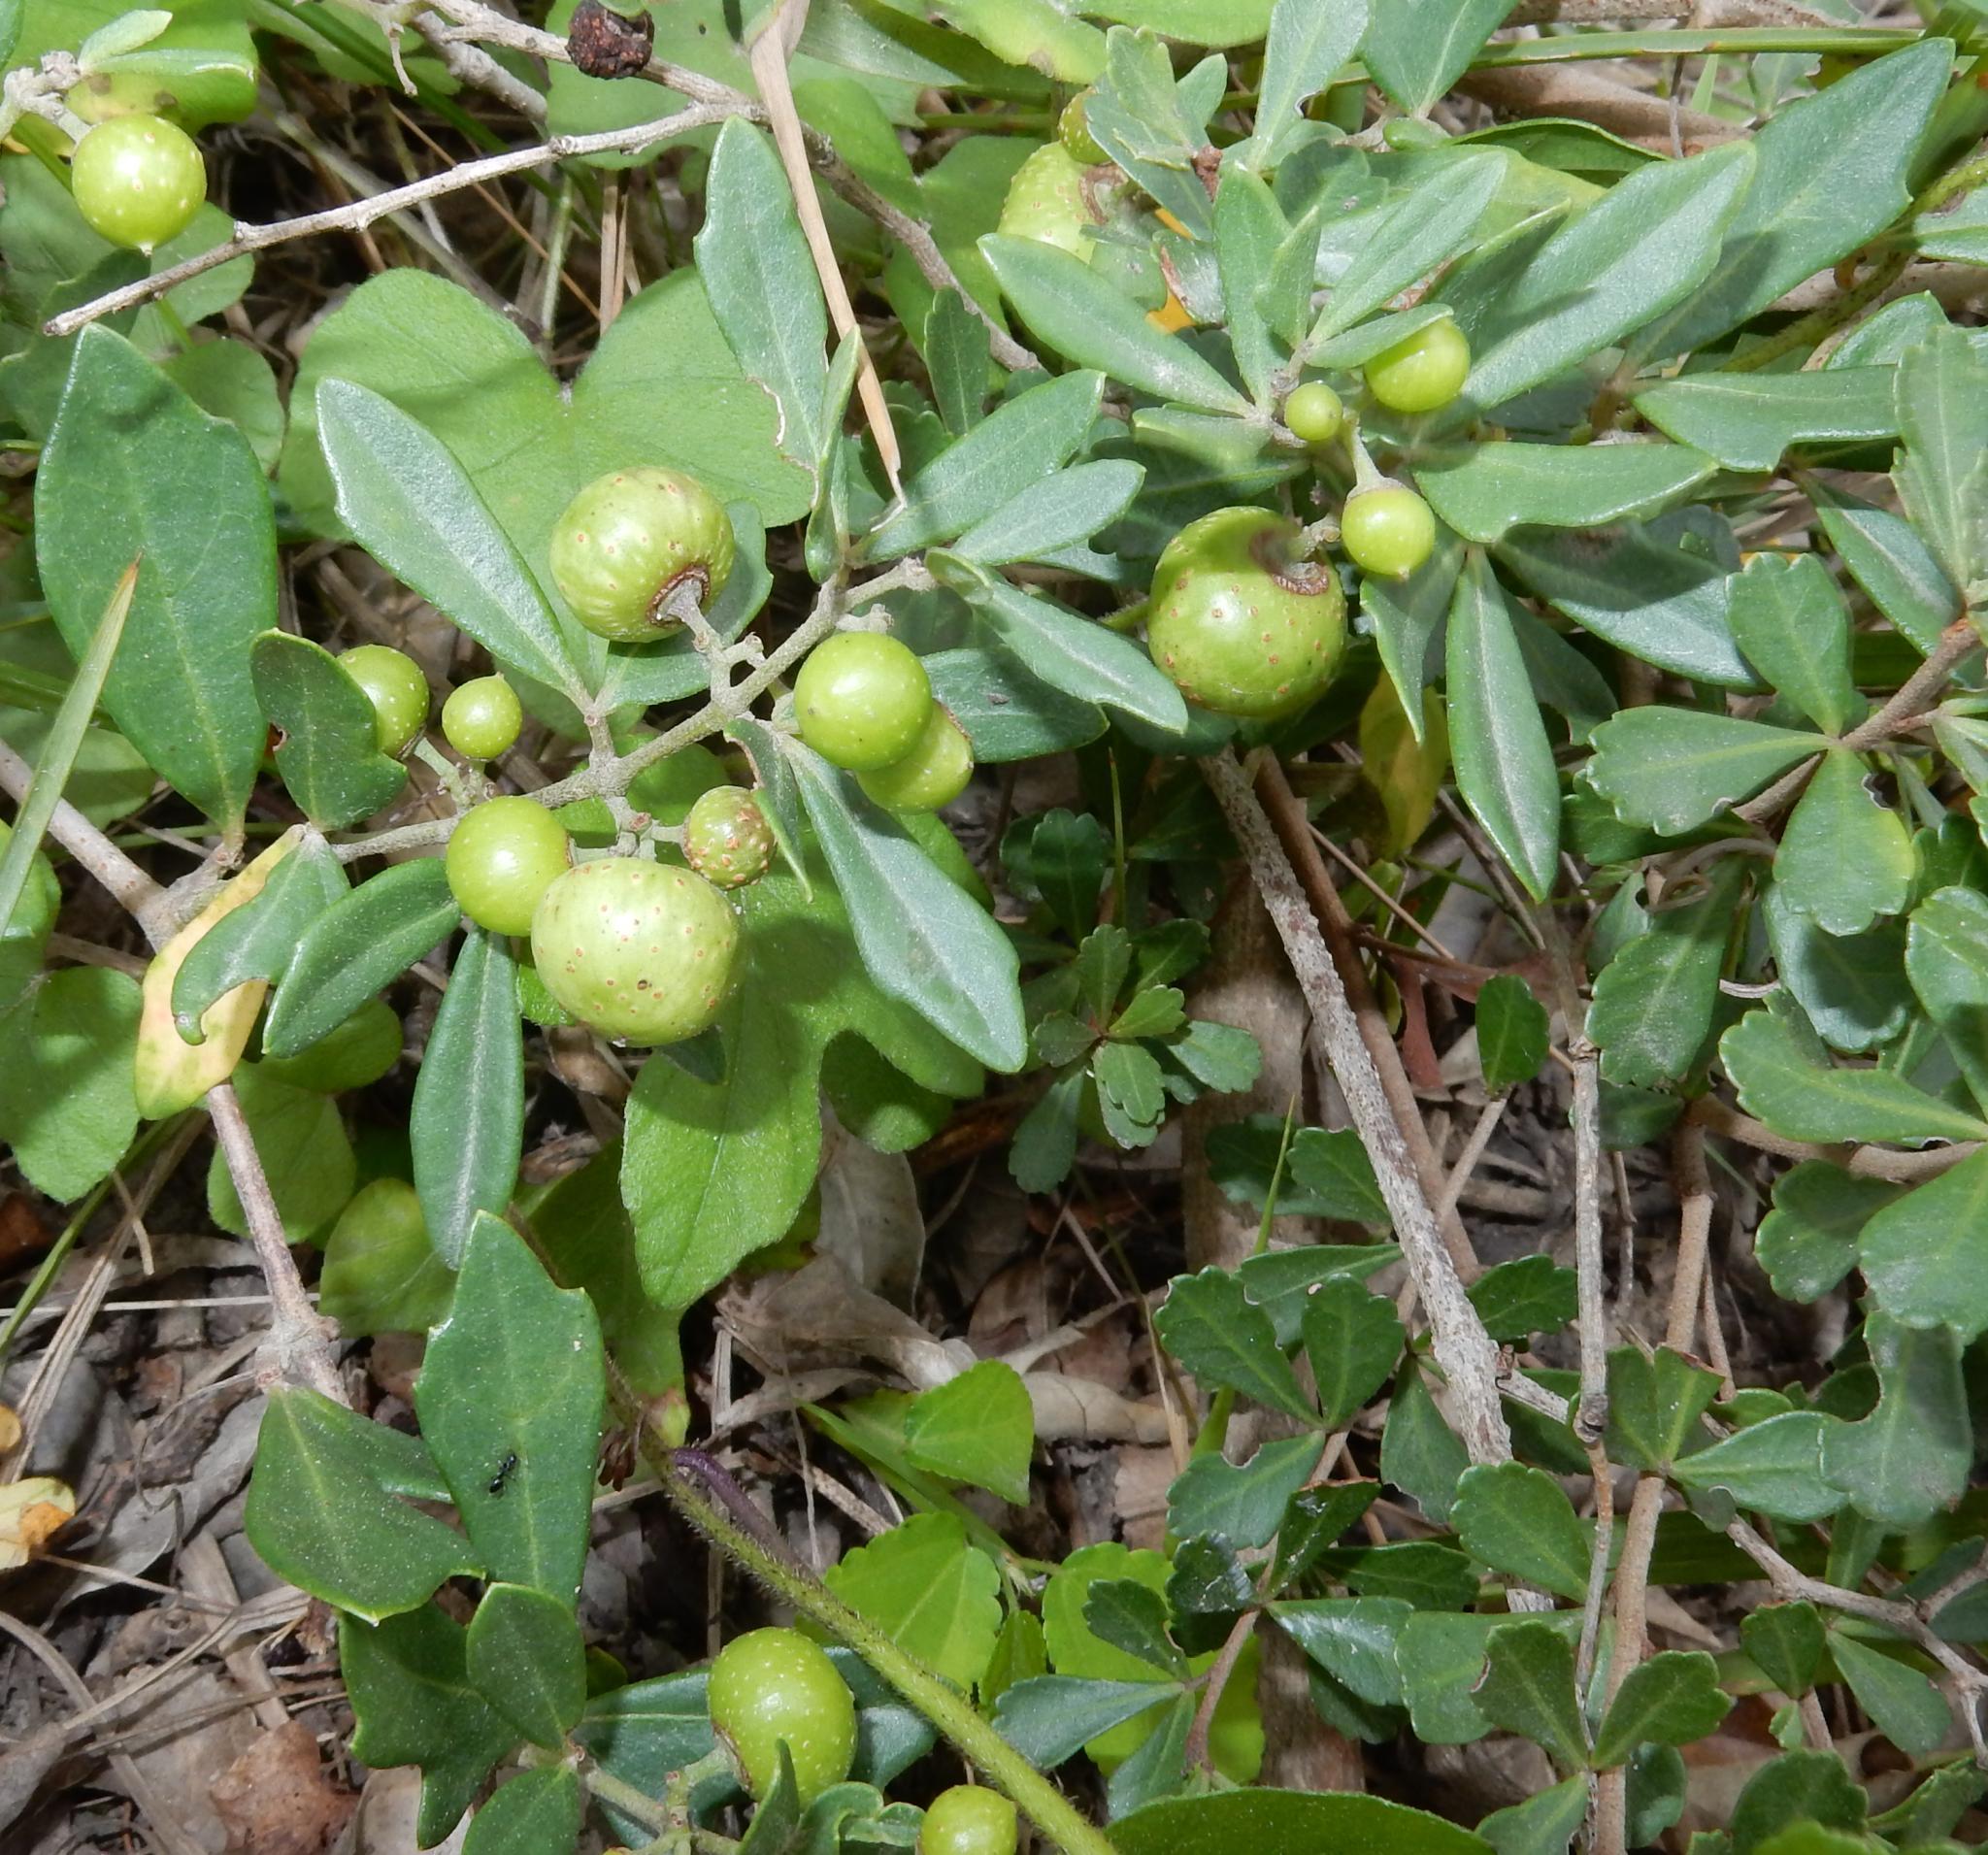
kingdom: Plantae
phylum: Tracheophyta
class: Magnoliopsida
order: Vitales
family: Vitaceae
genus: Rhoicissus
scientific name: Rhoicissus tridentata
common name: Common forest grape
